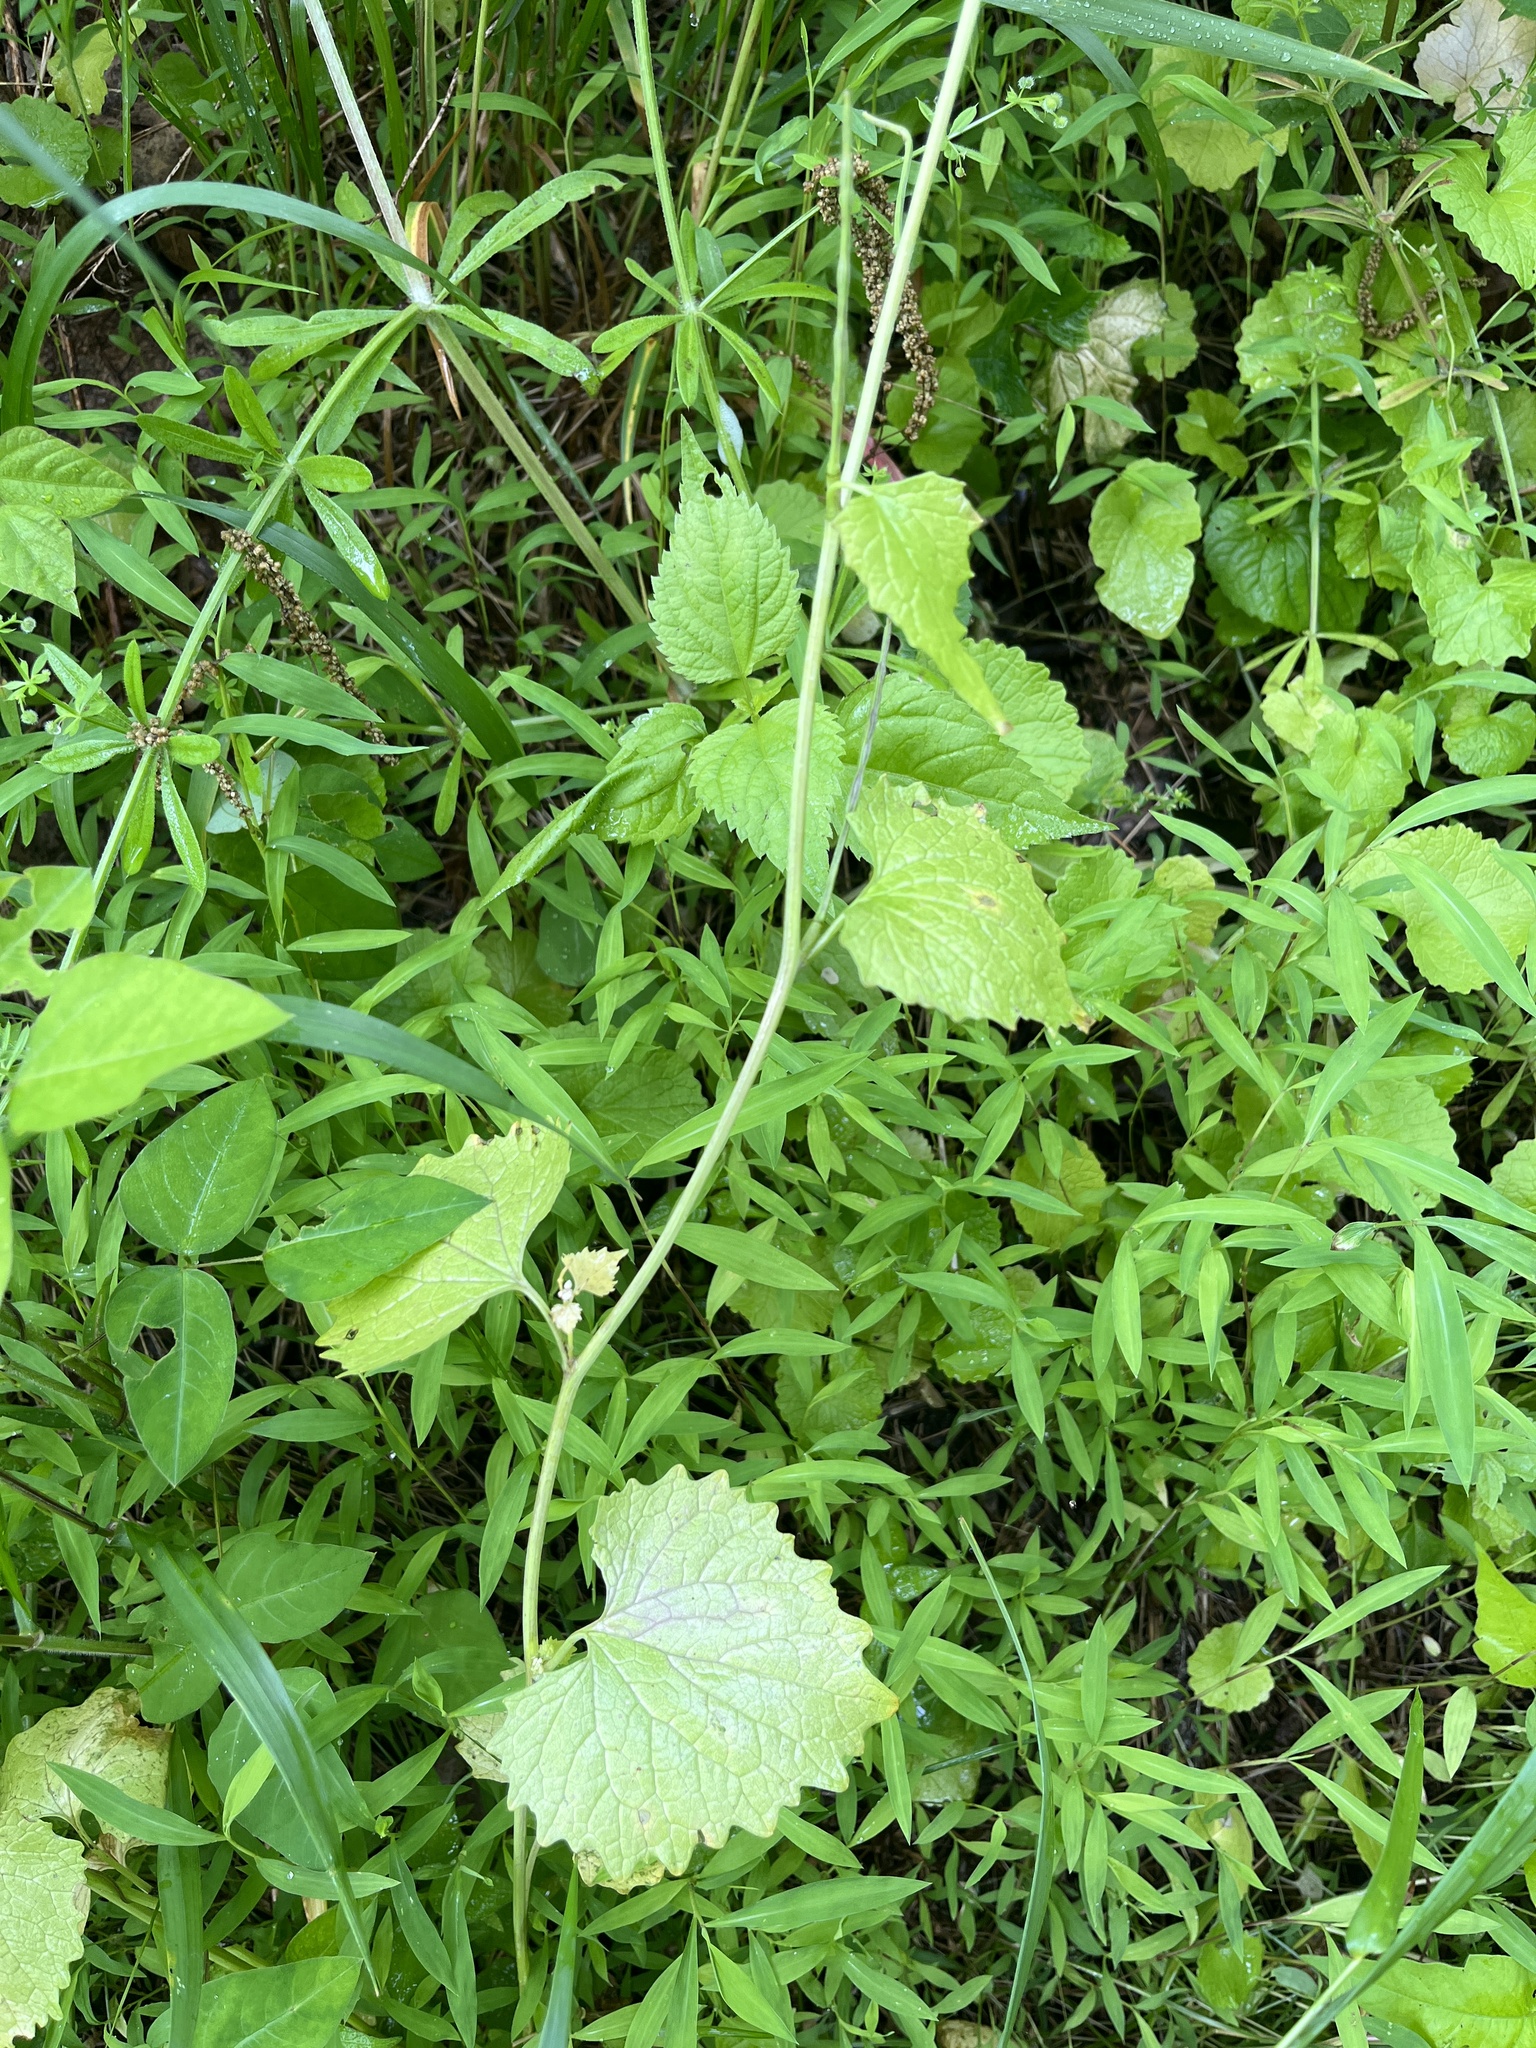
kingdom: Plantae
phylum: Tracheophyta
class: Magnoliopsida
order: Brassicales
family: Brassicaceae
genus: Alliaria
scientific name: Alliaria petiolata
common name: Garlic mustard
